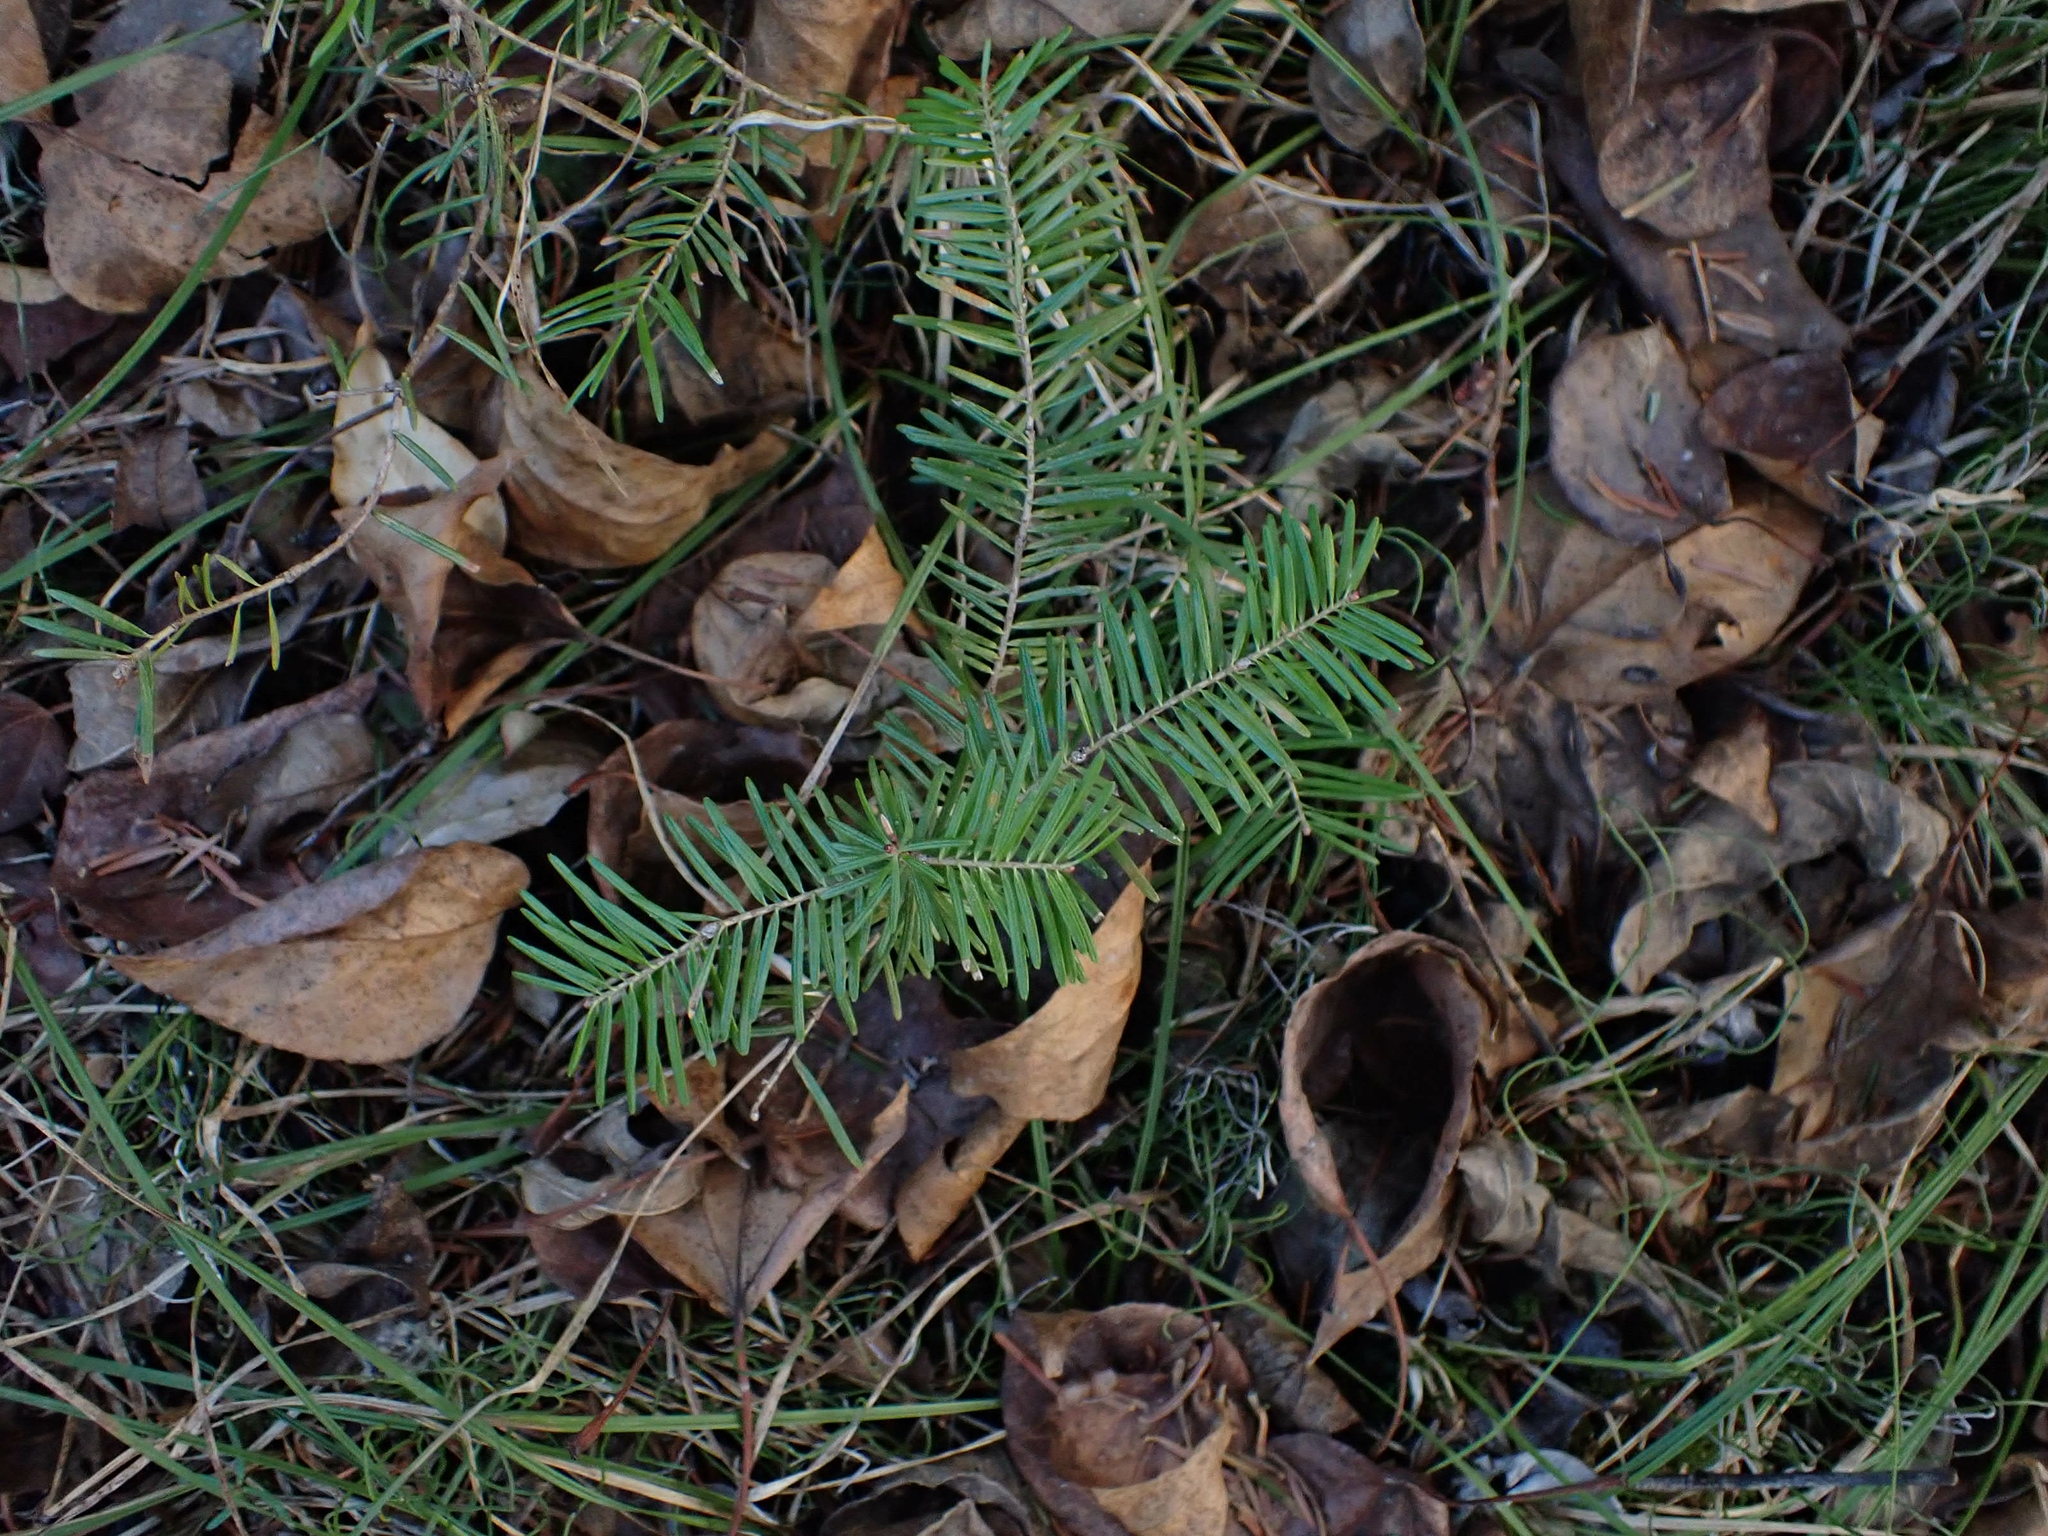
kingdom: Plantae
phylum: Tracheophyta
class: Pinopsida
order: Pinales
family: Pinaceae
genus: Abies
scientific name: Abies balsamea
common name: Balsam fir
